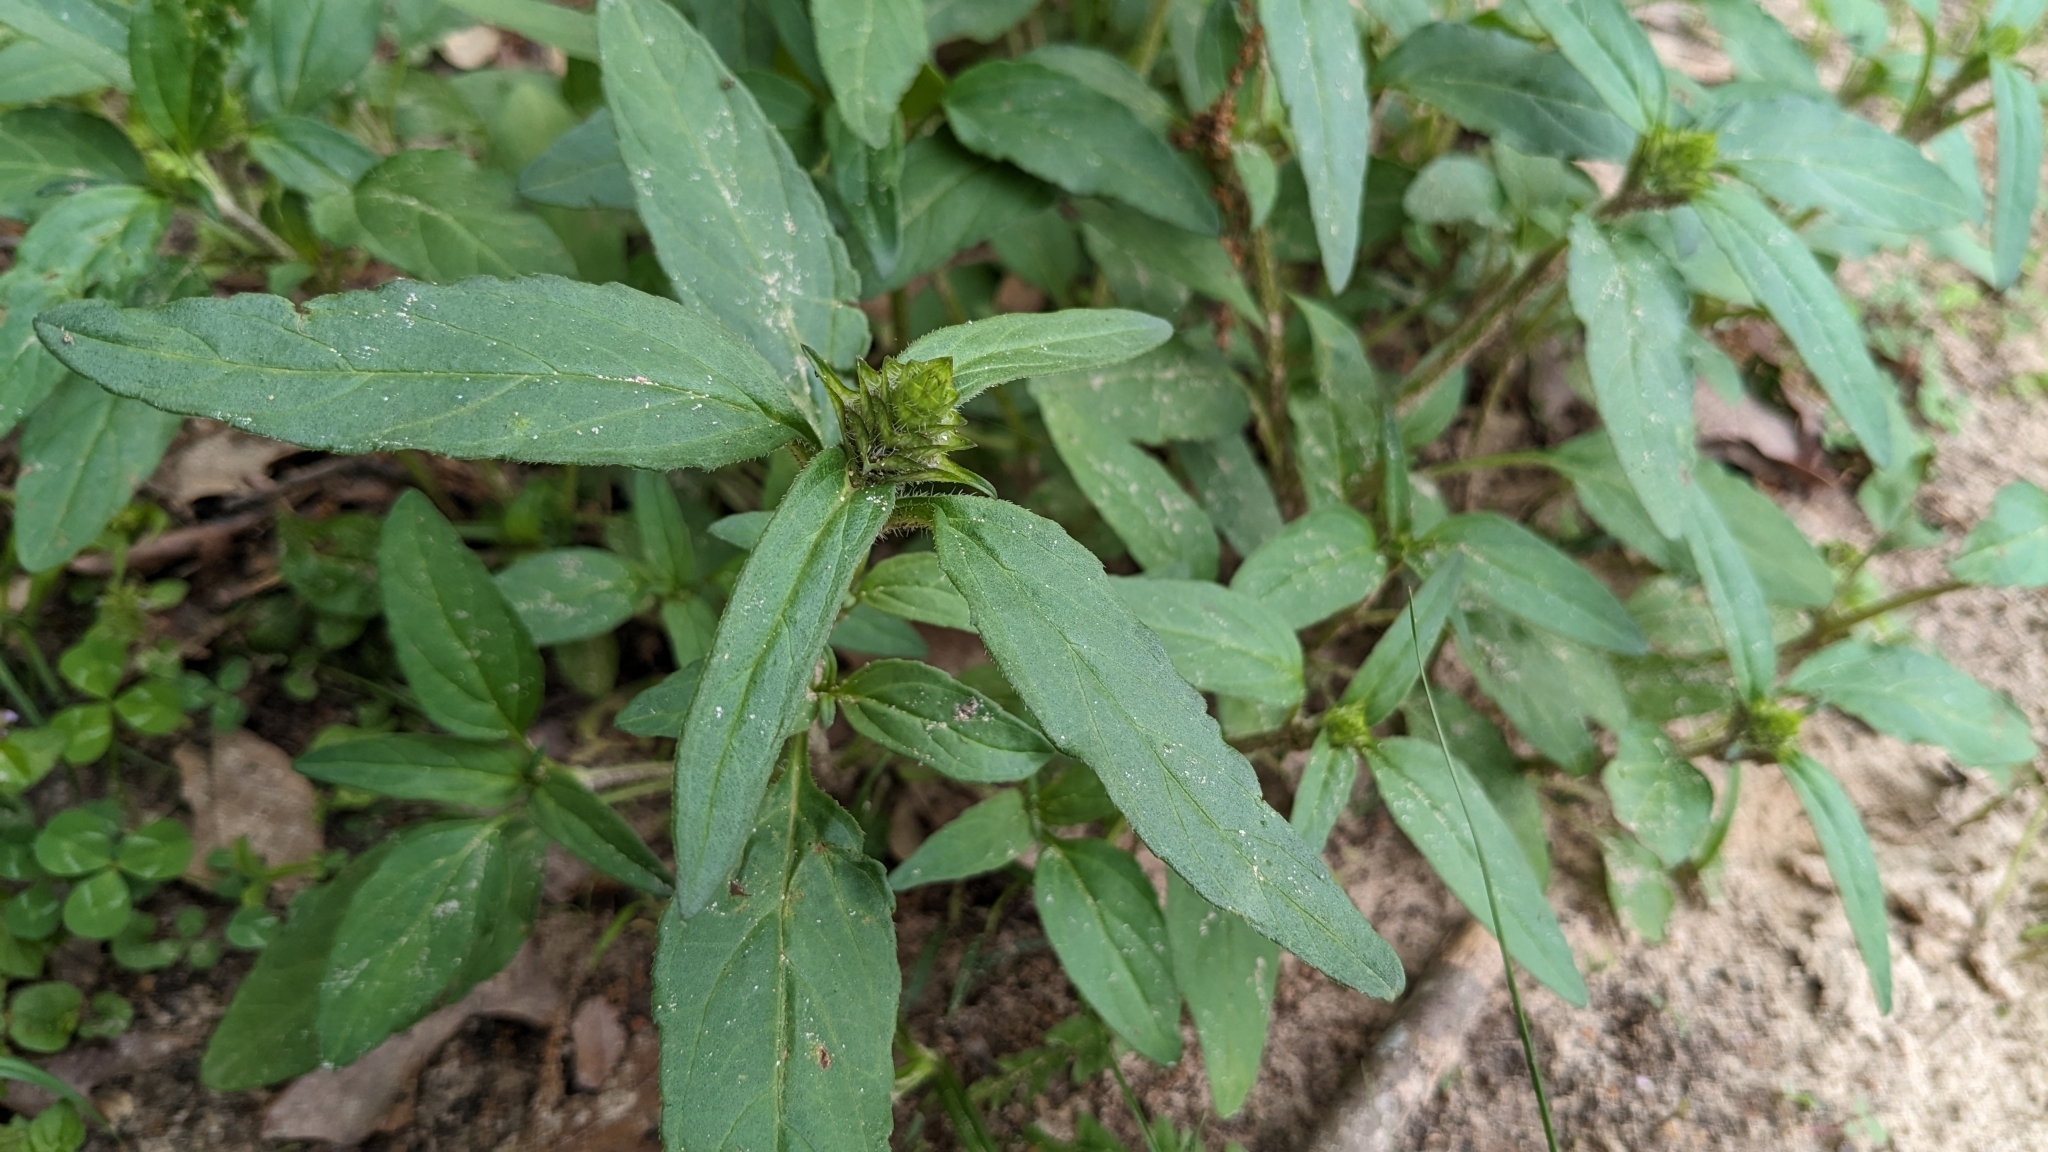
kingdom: Plantae
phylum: Tracheophyta
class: Magnoliopsida
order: Lamiales
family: Lamiaceae
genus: Prunella
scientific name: Prunella vulgaris
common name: Heal-all
